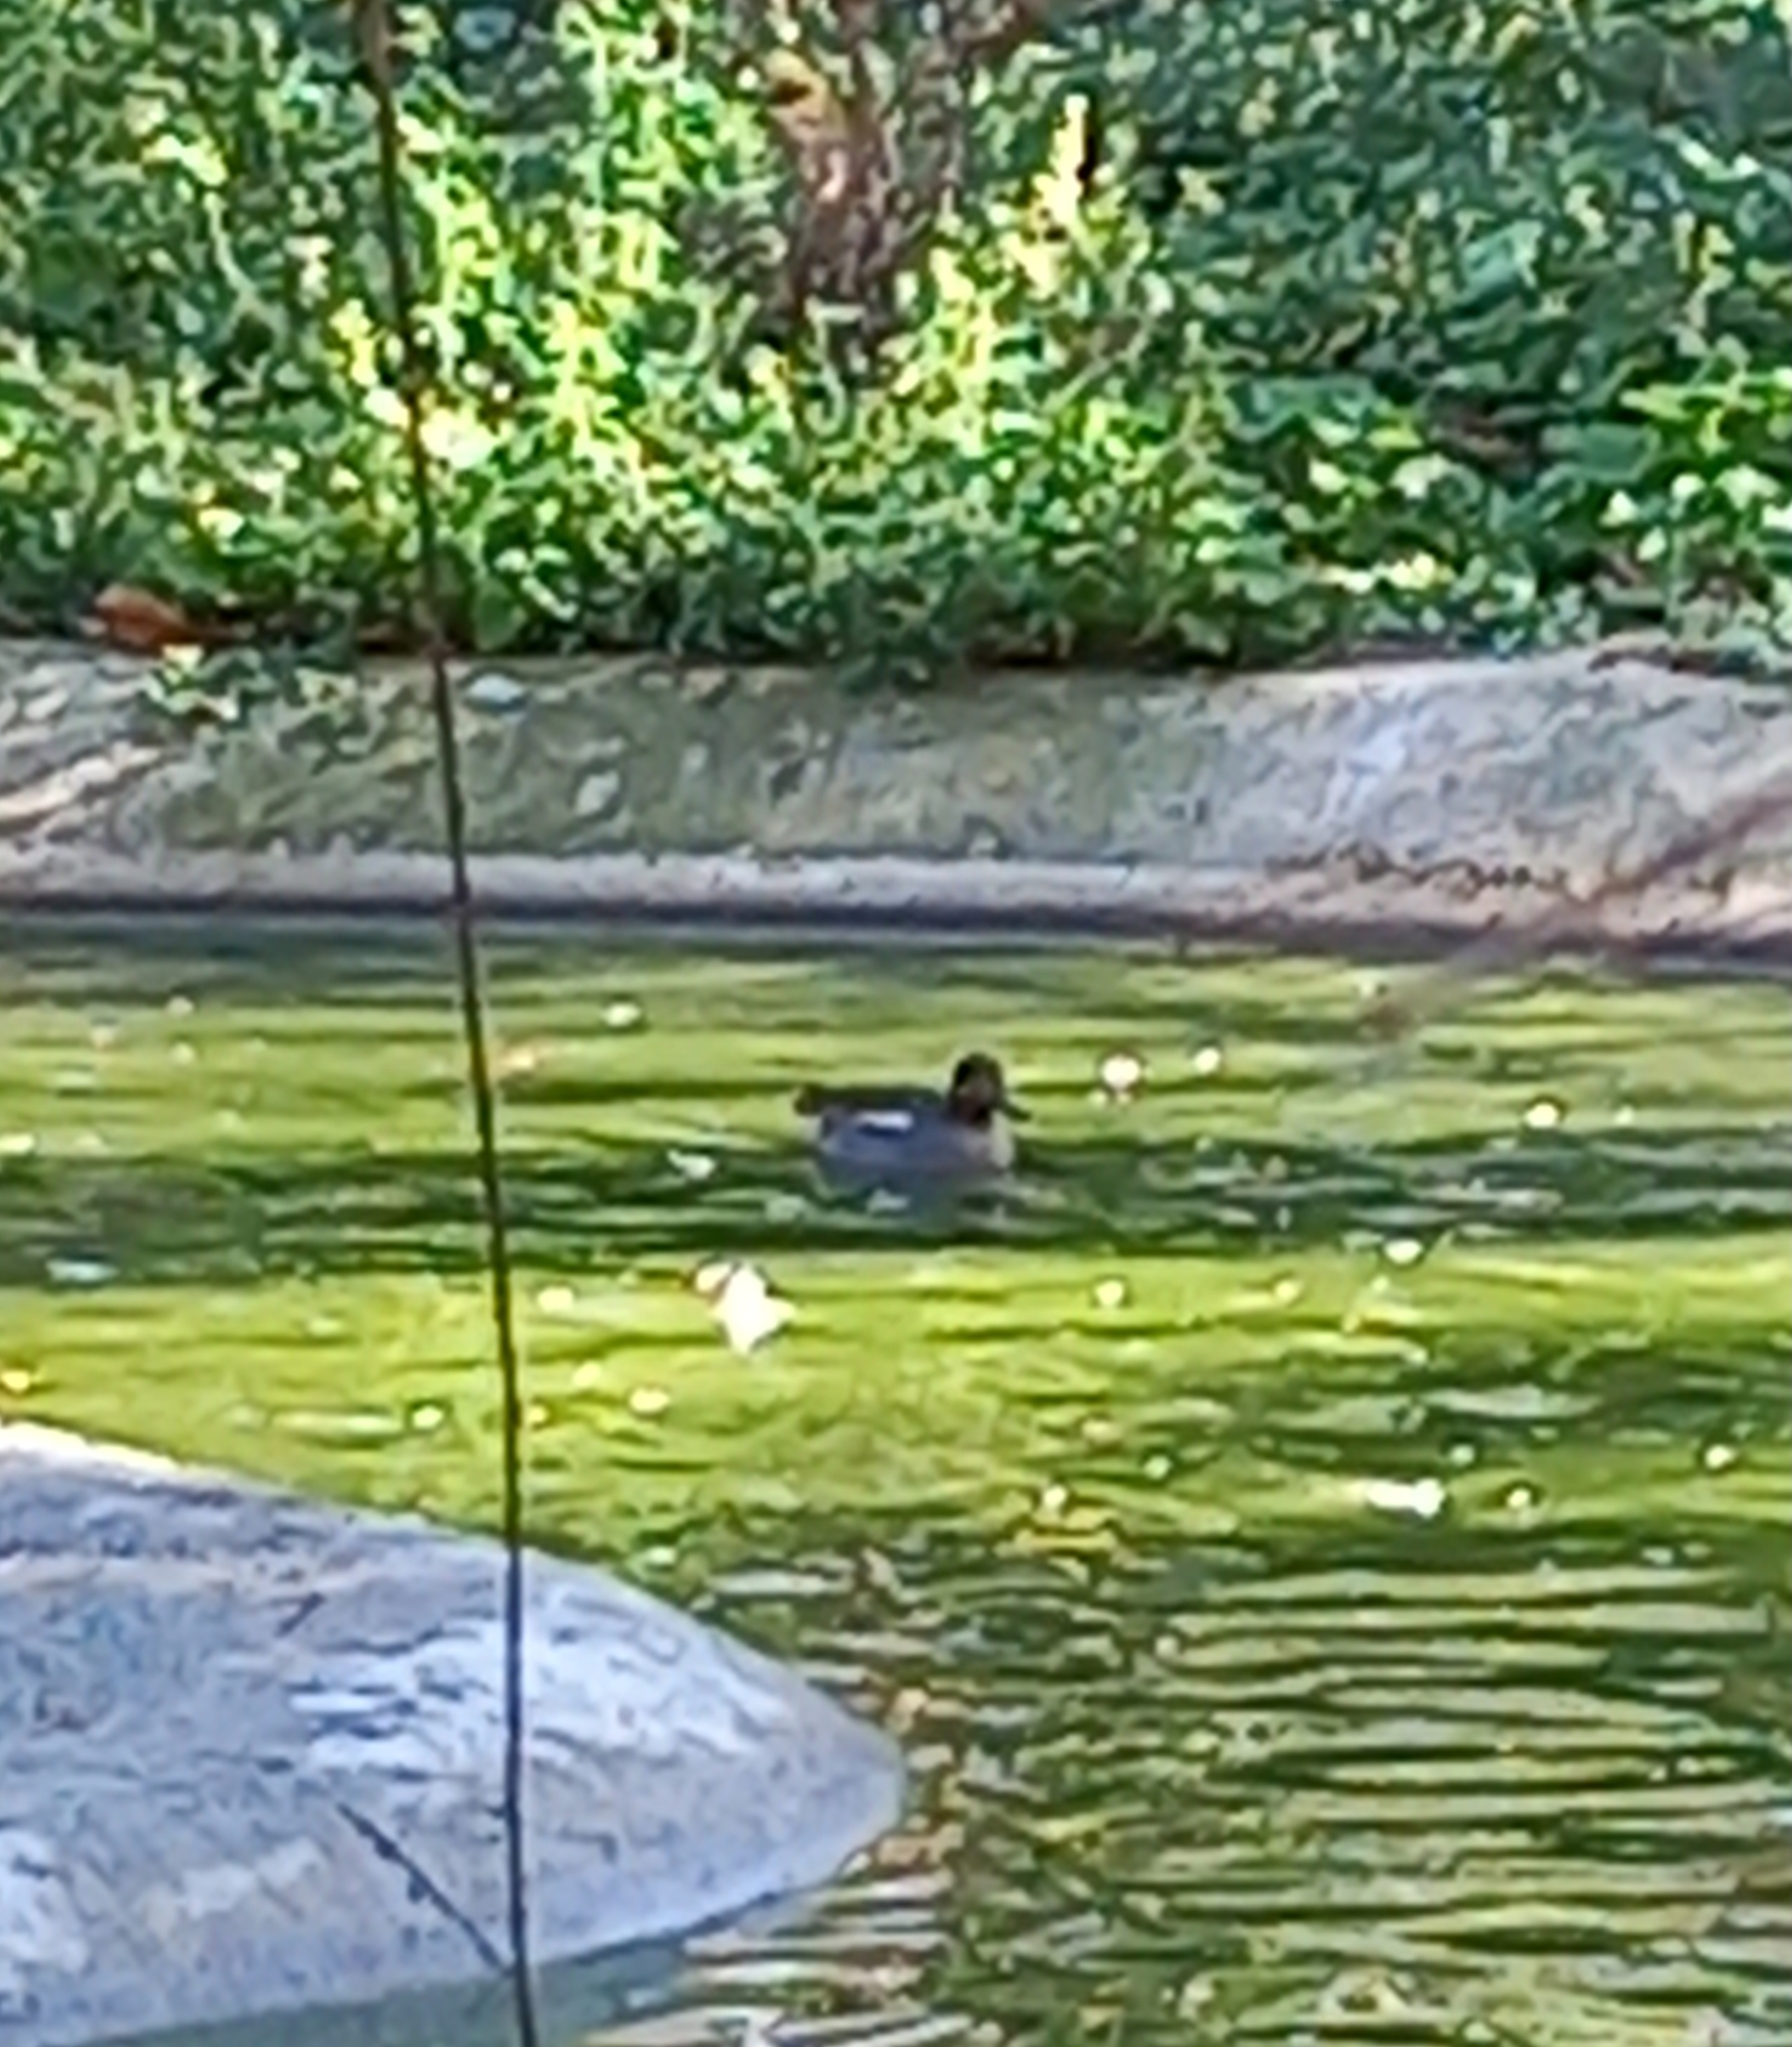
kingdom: Animalia
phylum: Chordata
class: Aves
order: Anseriformes
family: Anatidae
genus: Anas
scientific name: Anas crecca
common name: Eurasian teal
